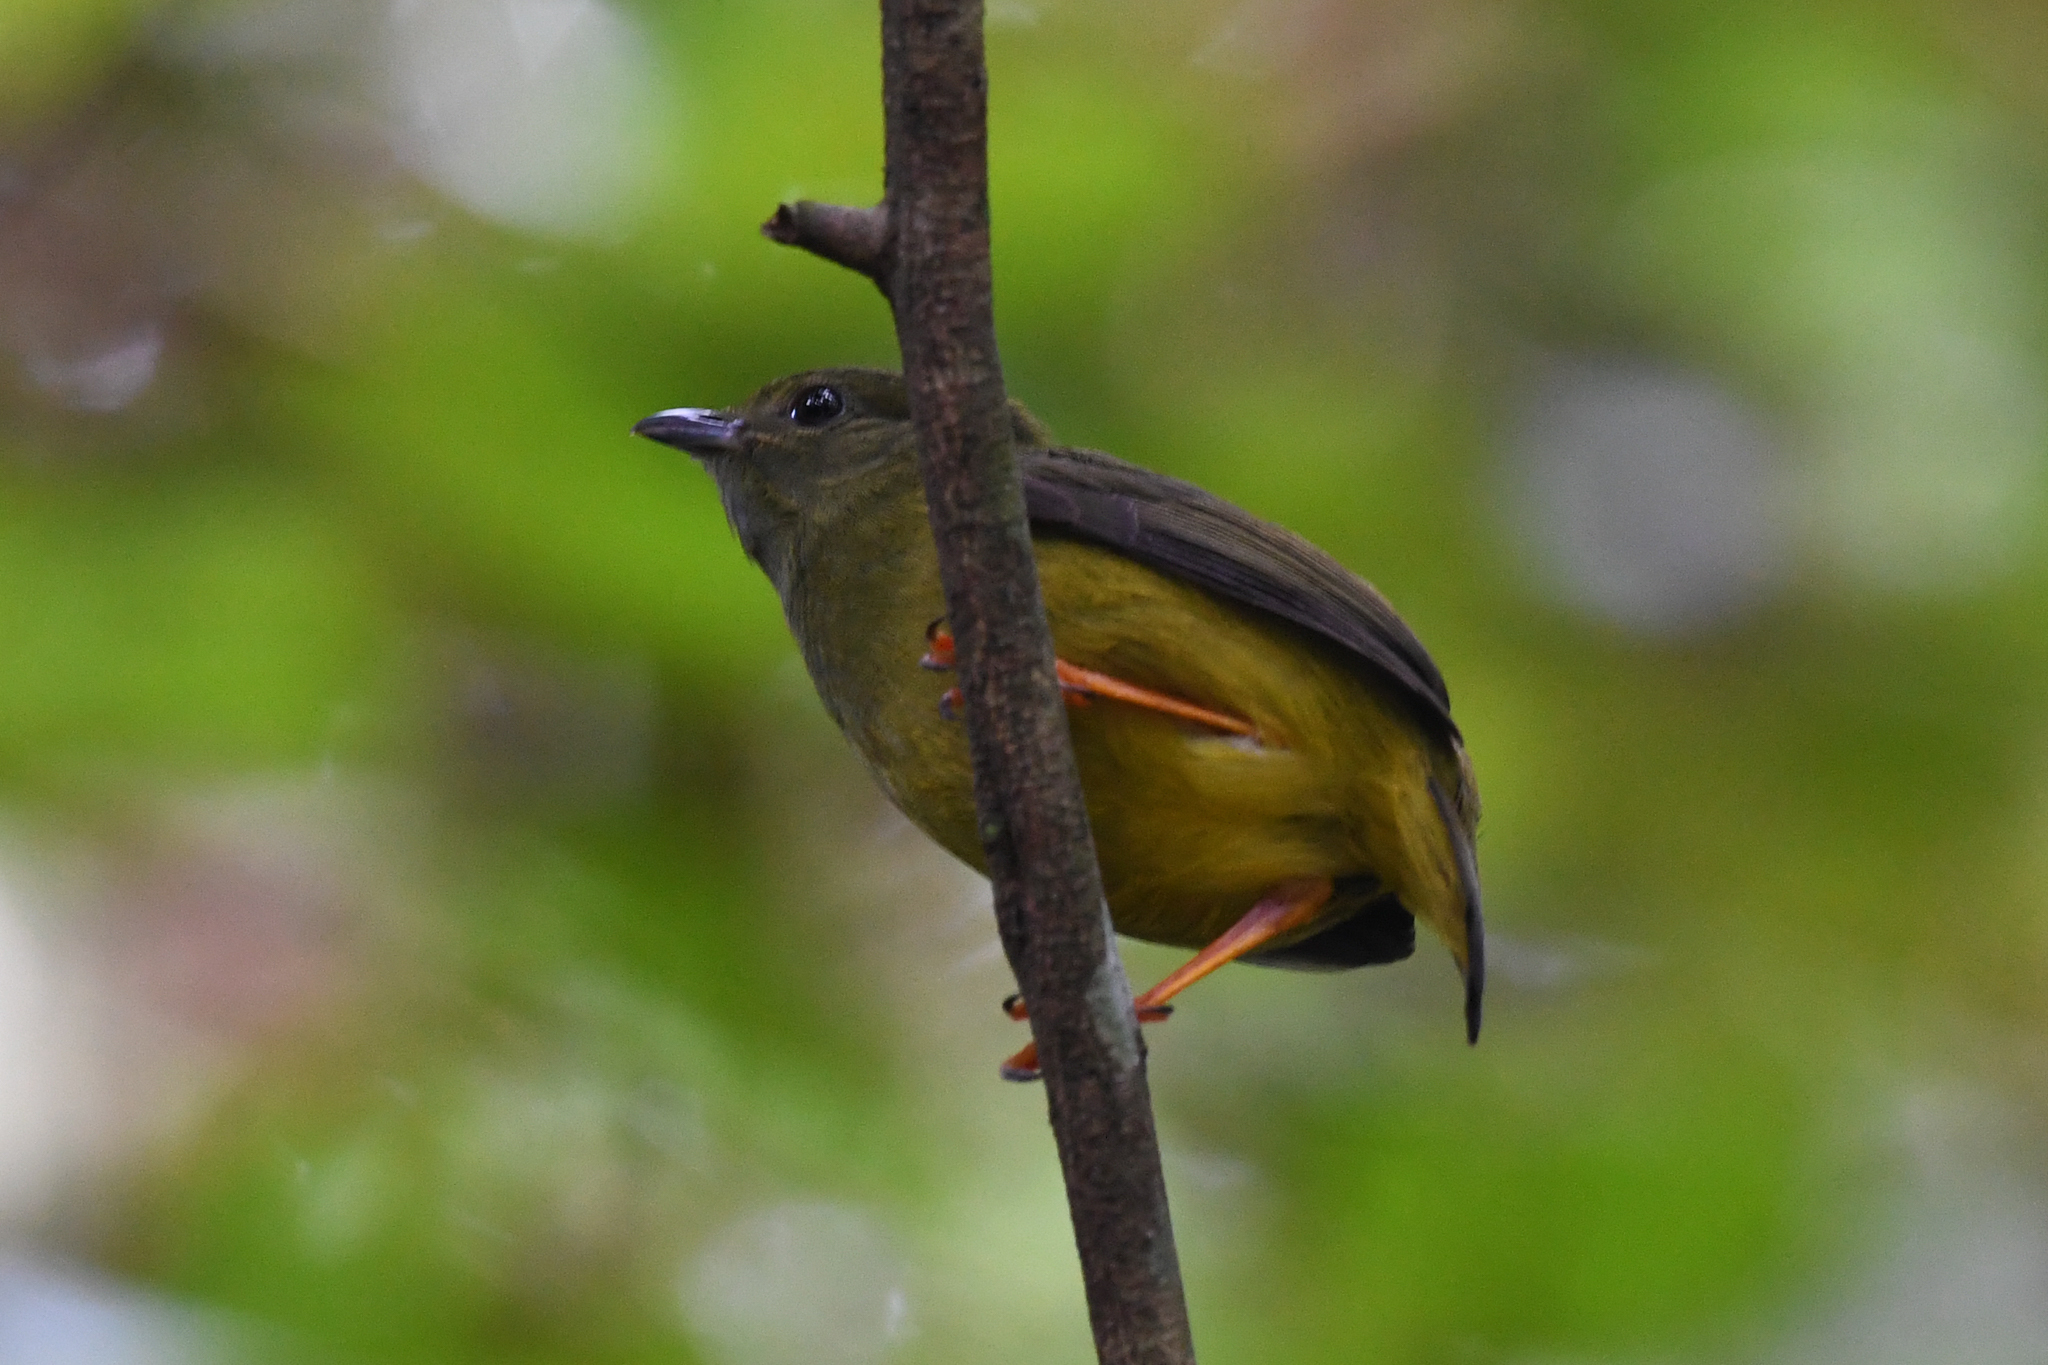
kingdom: Animalia
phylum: Chordata
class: Aves
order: Passeriformes
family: Pipridae
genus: Manacus
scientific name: Manacus candei
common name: White-collared manakin
